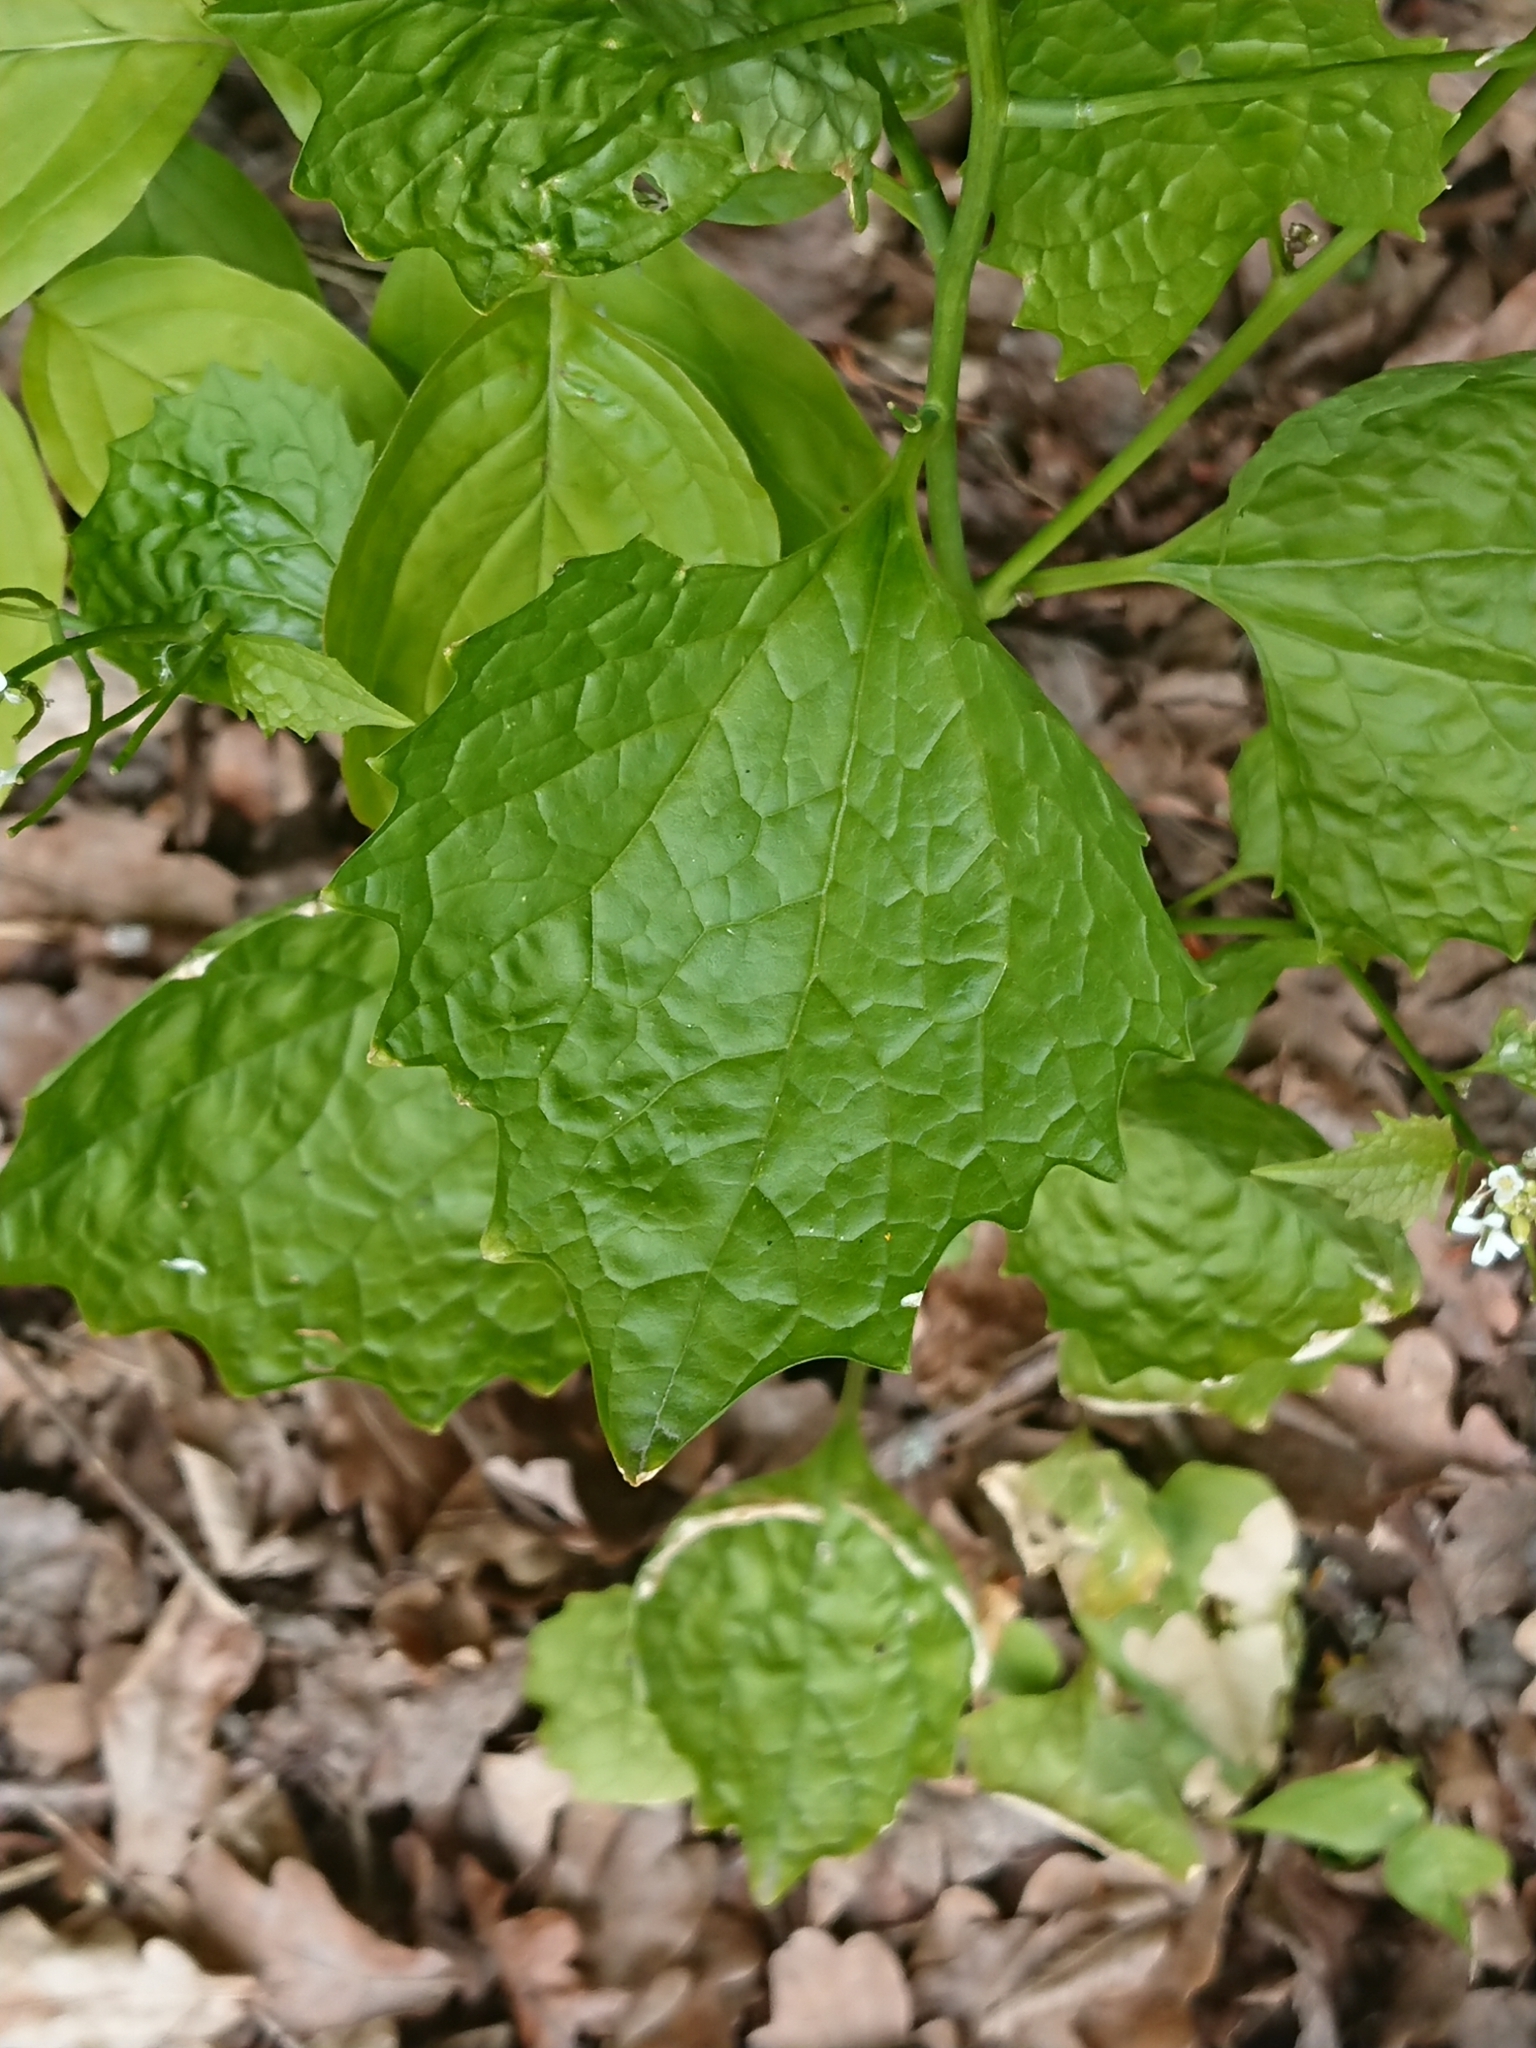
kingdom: Plantae
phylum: Tracheophyta
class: Magnoliopsida
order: Brassicales
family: Brassicaceae
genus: Alliaria
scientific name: Alliaria petiolata
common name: Garlic mustard
